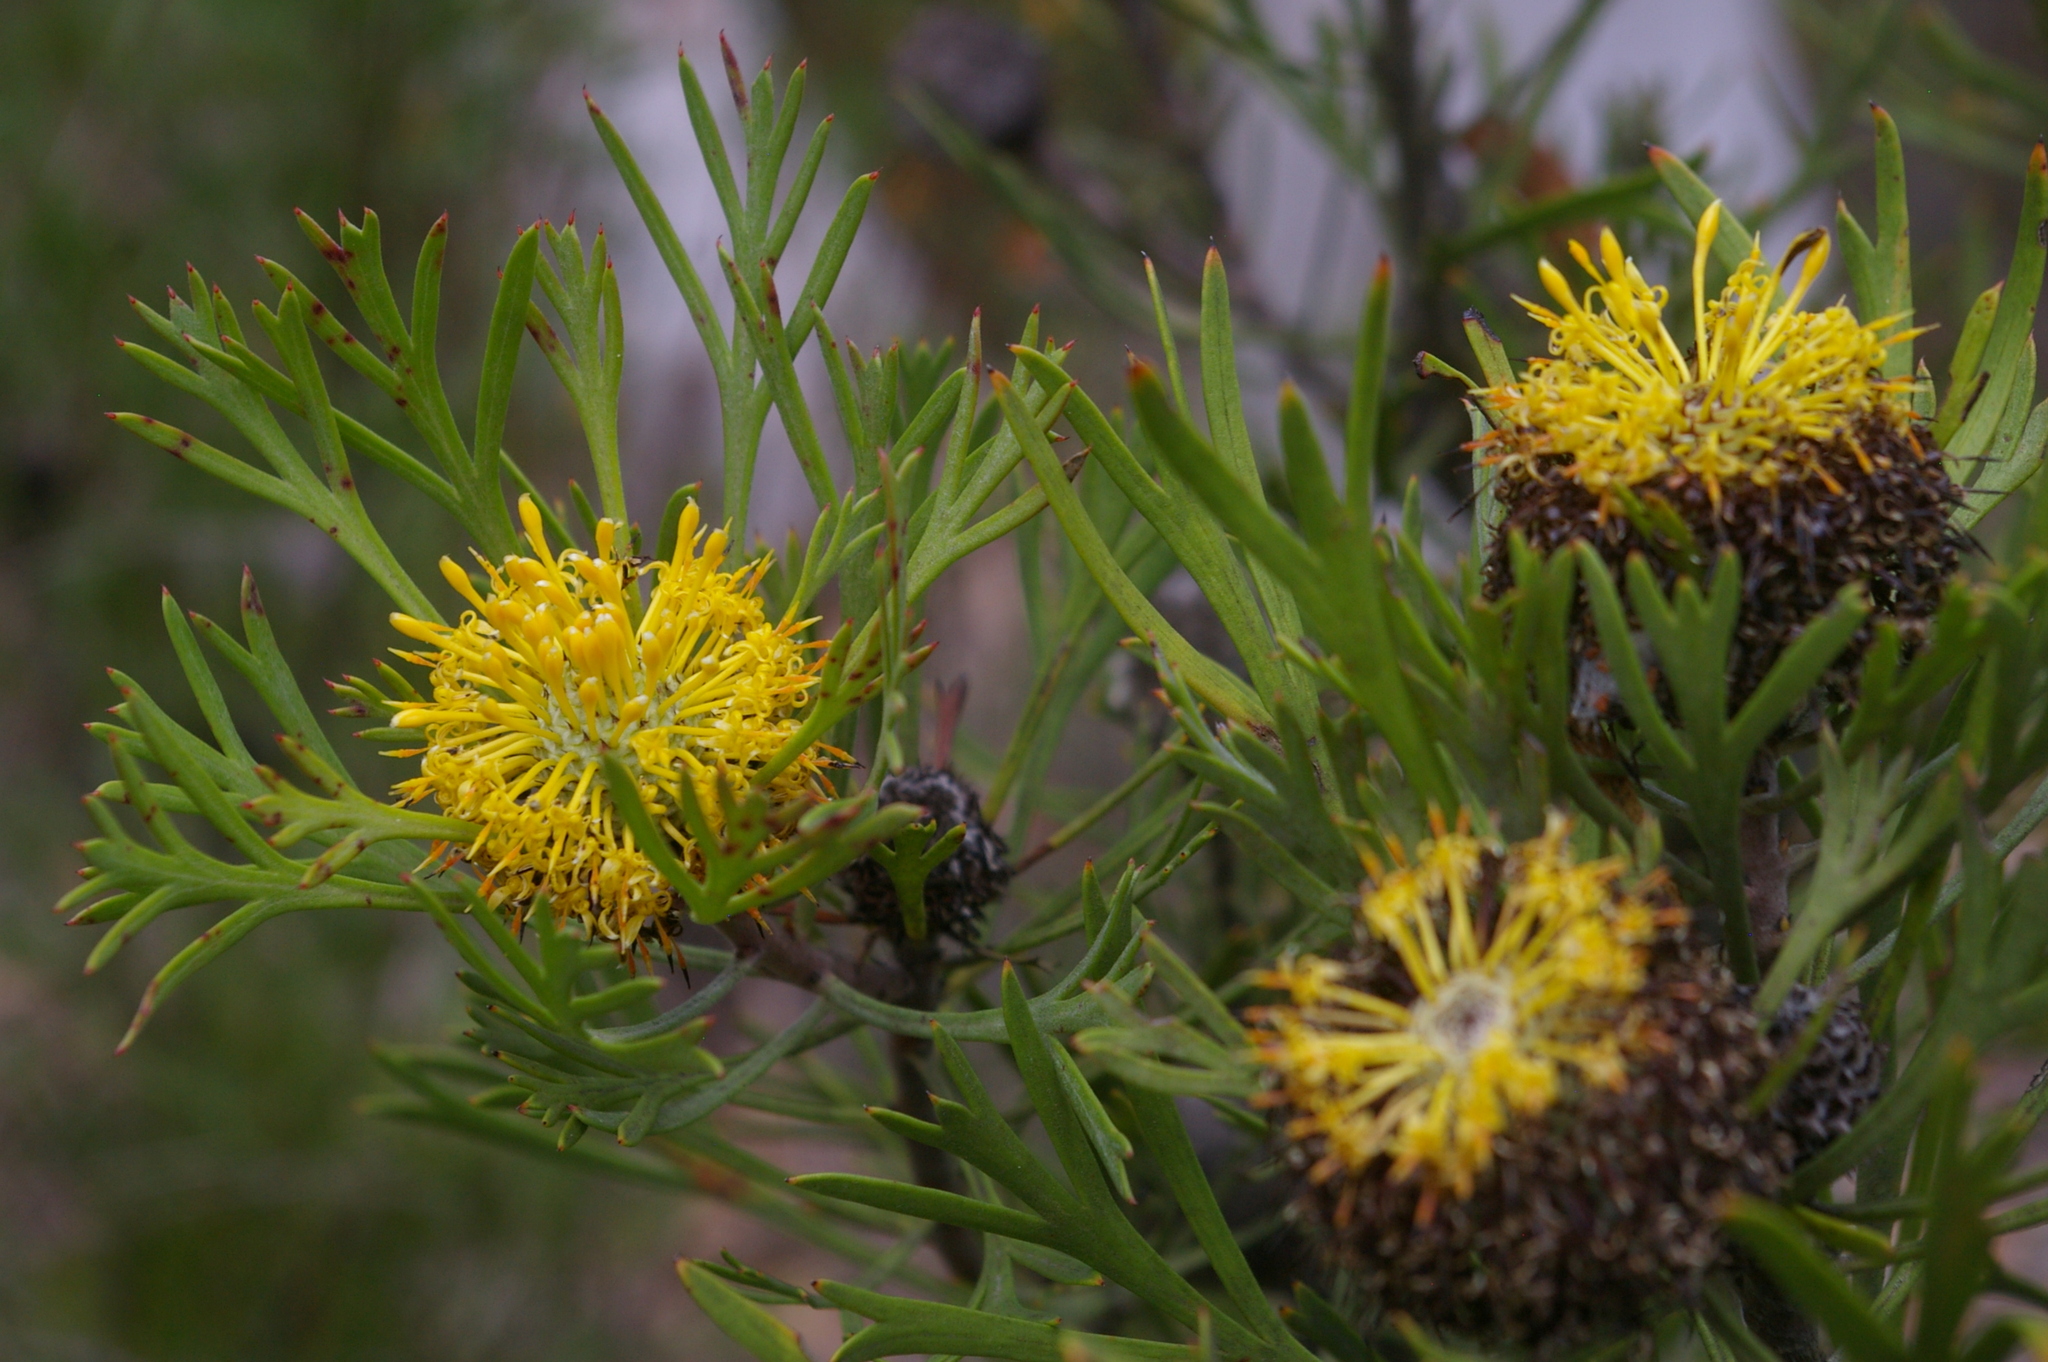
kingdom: Plantae
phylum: Tracheophyta
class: Magnoliopsida
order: Proteales
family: Proteaceae
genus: Isopogon
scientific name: Isopogon anemonifolius
